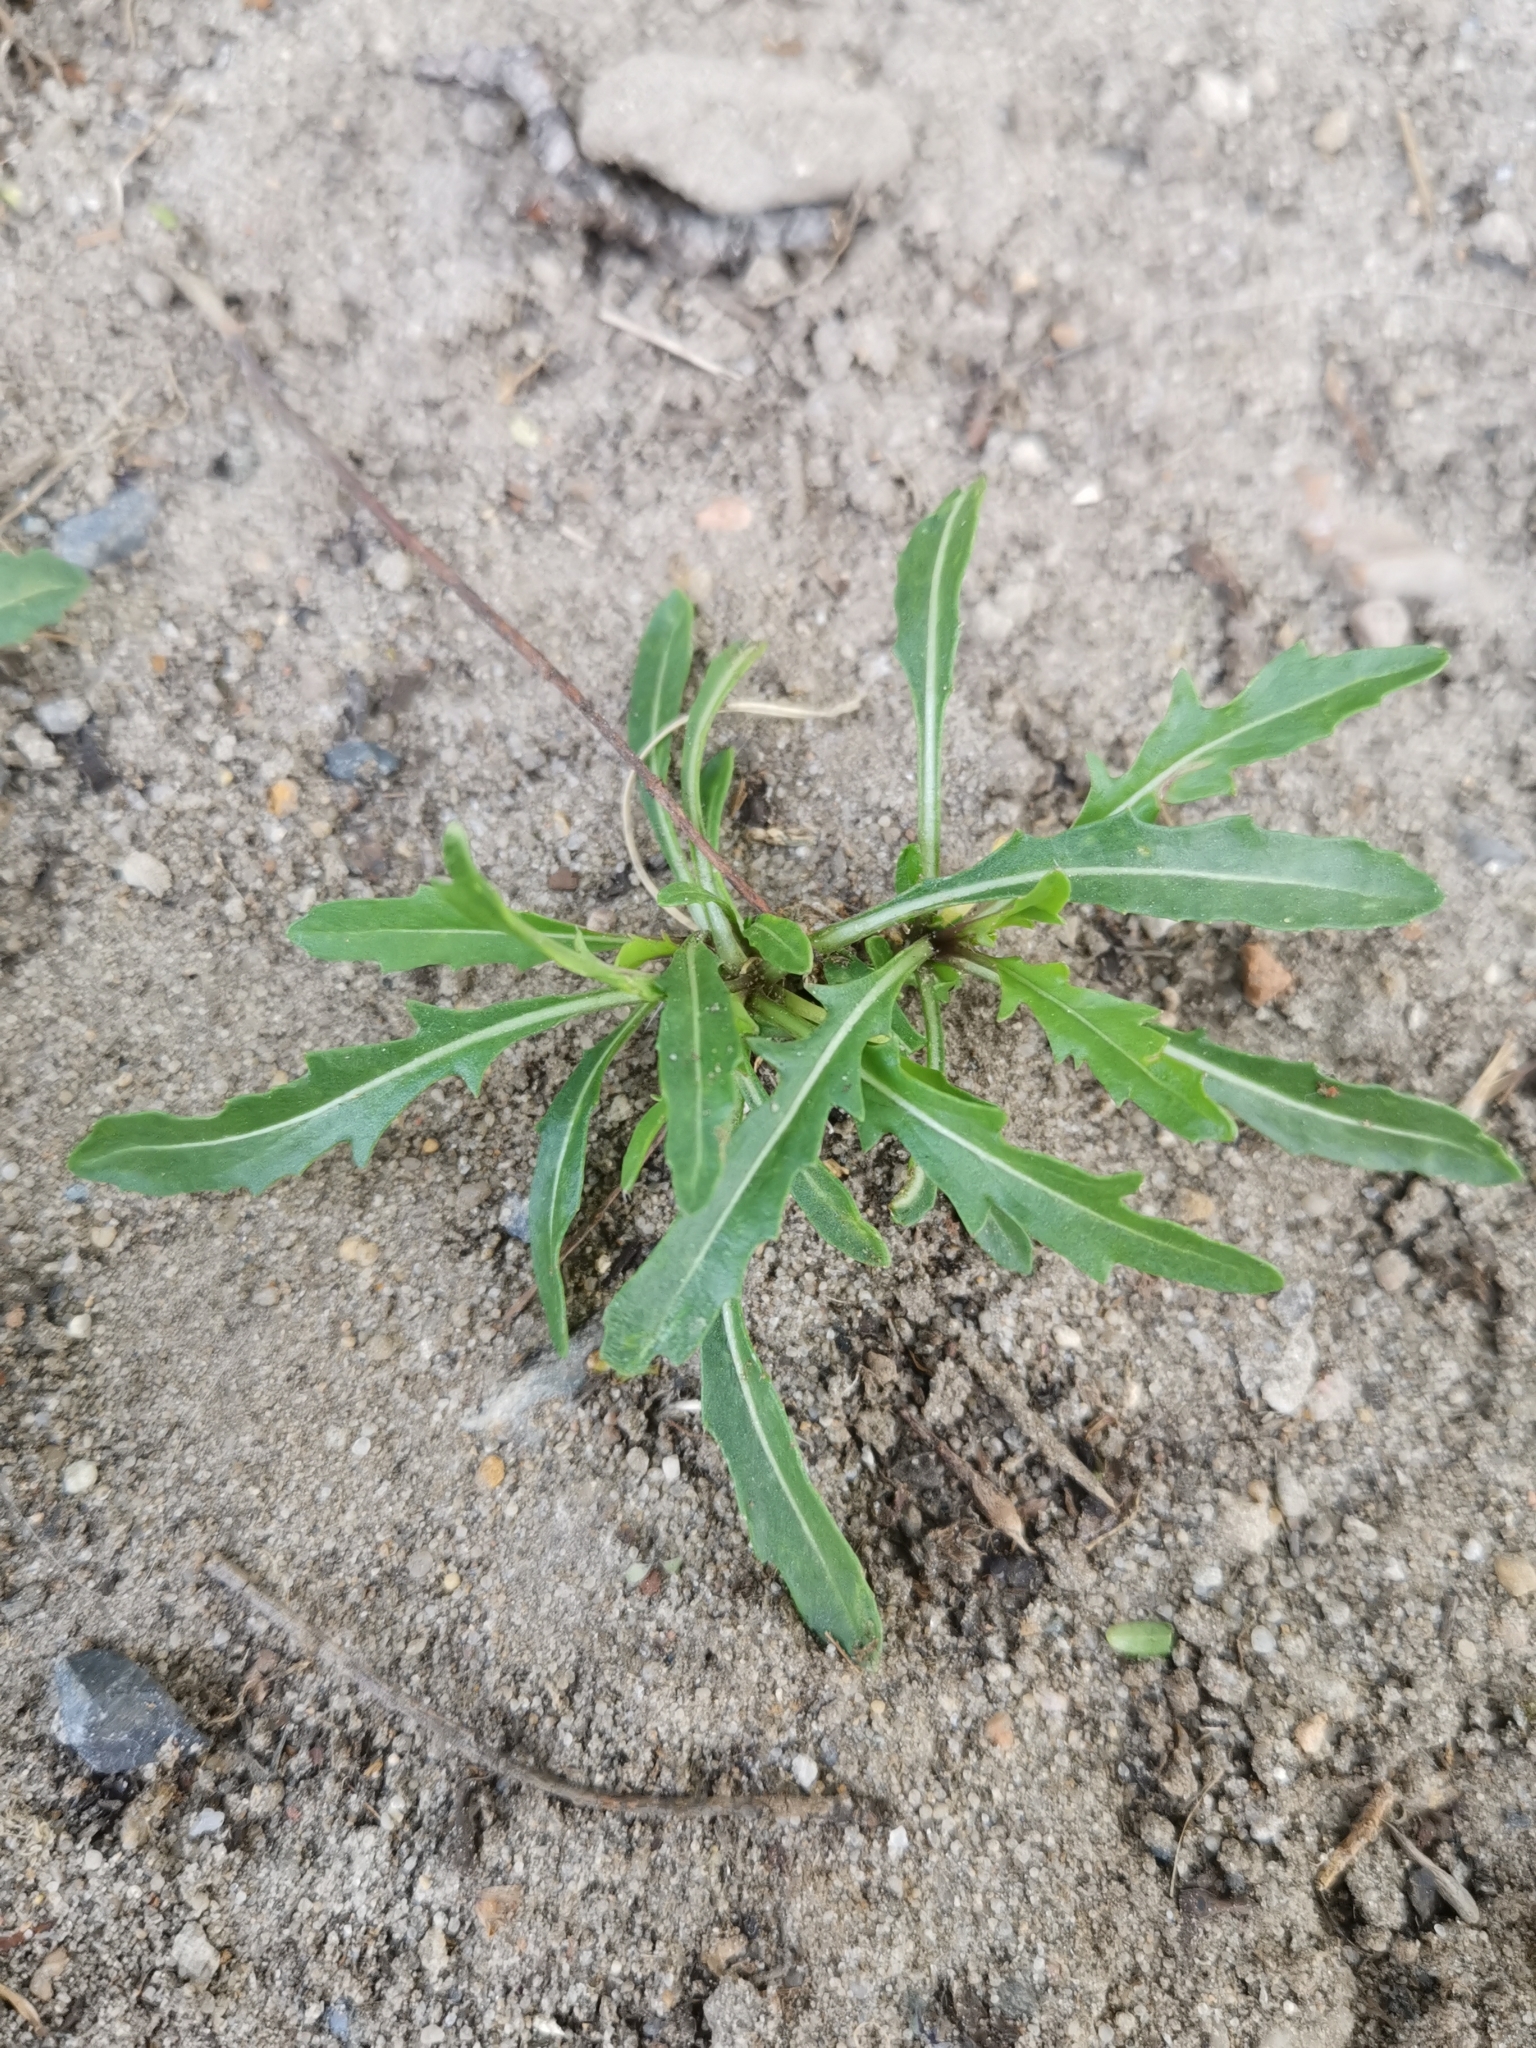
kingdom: Plantae
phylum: Tracheophyta
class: Magnoliopsida
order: Brassicales
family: Brassicaceae
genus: Diplotaxis
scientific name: Diplotaxis tenuifolia
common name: Perennial wall-rocket
